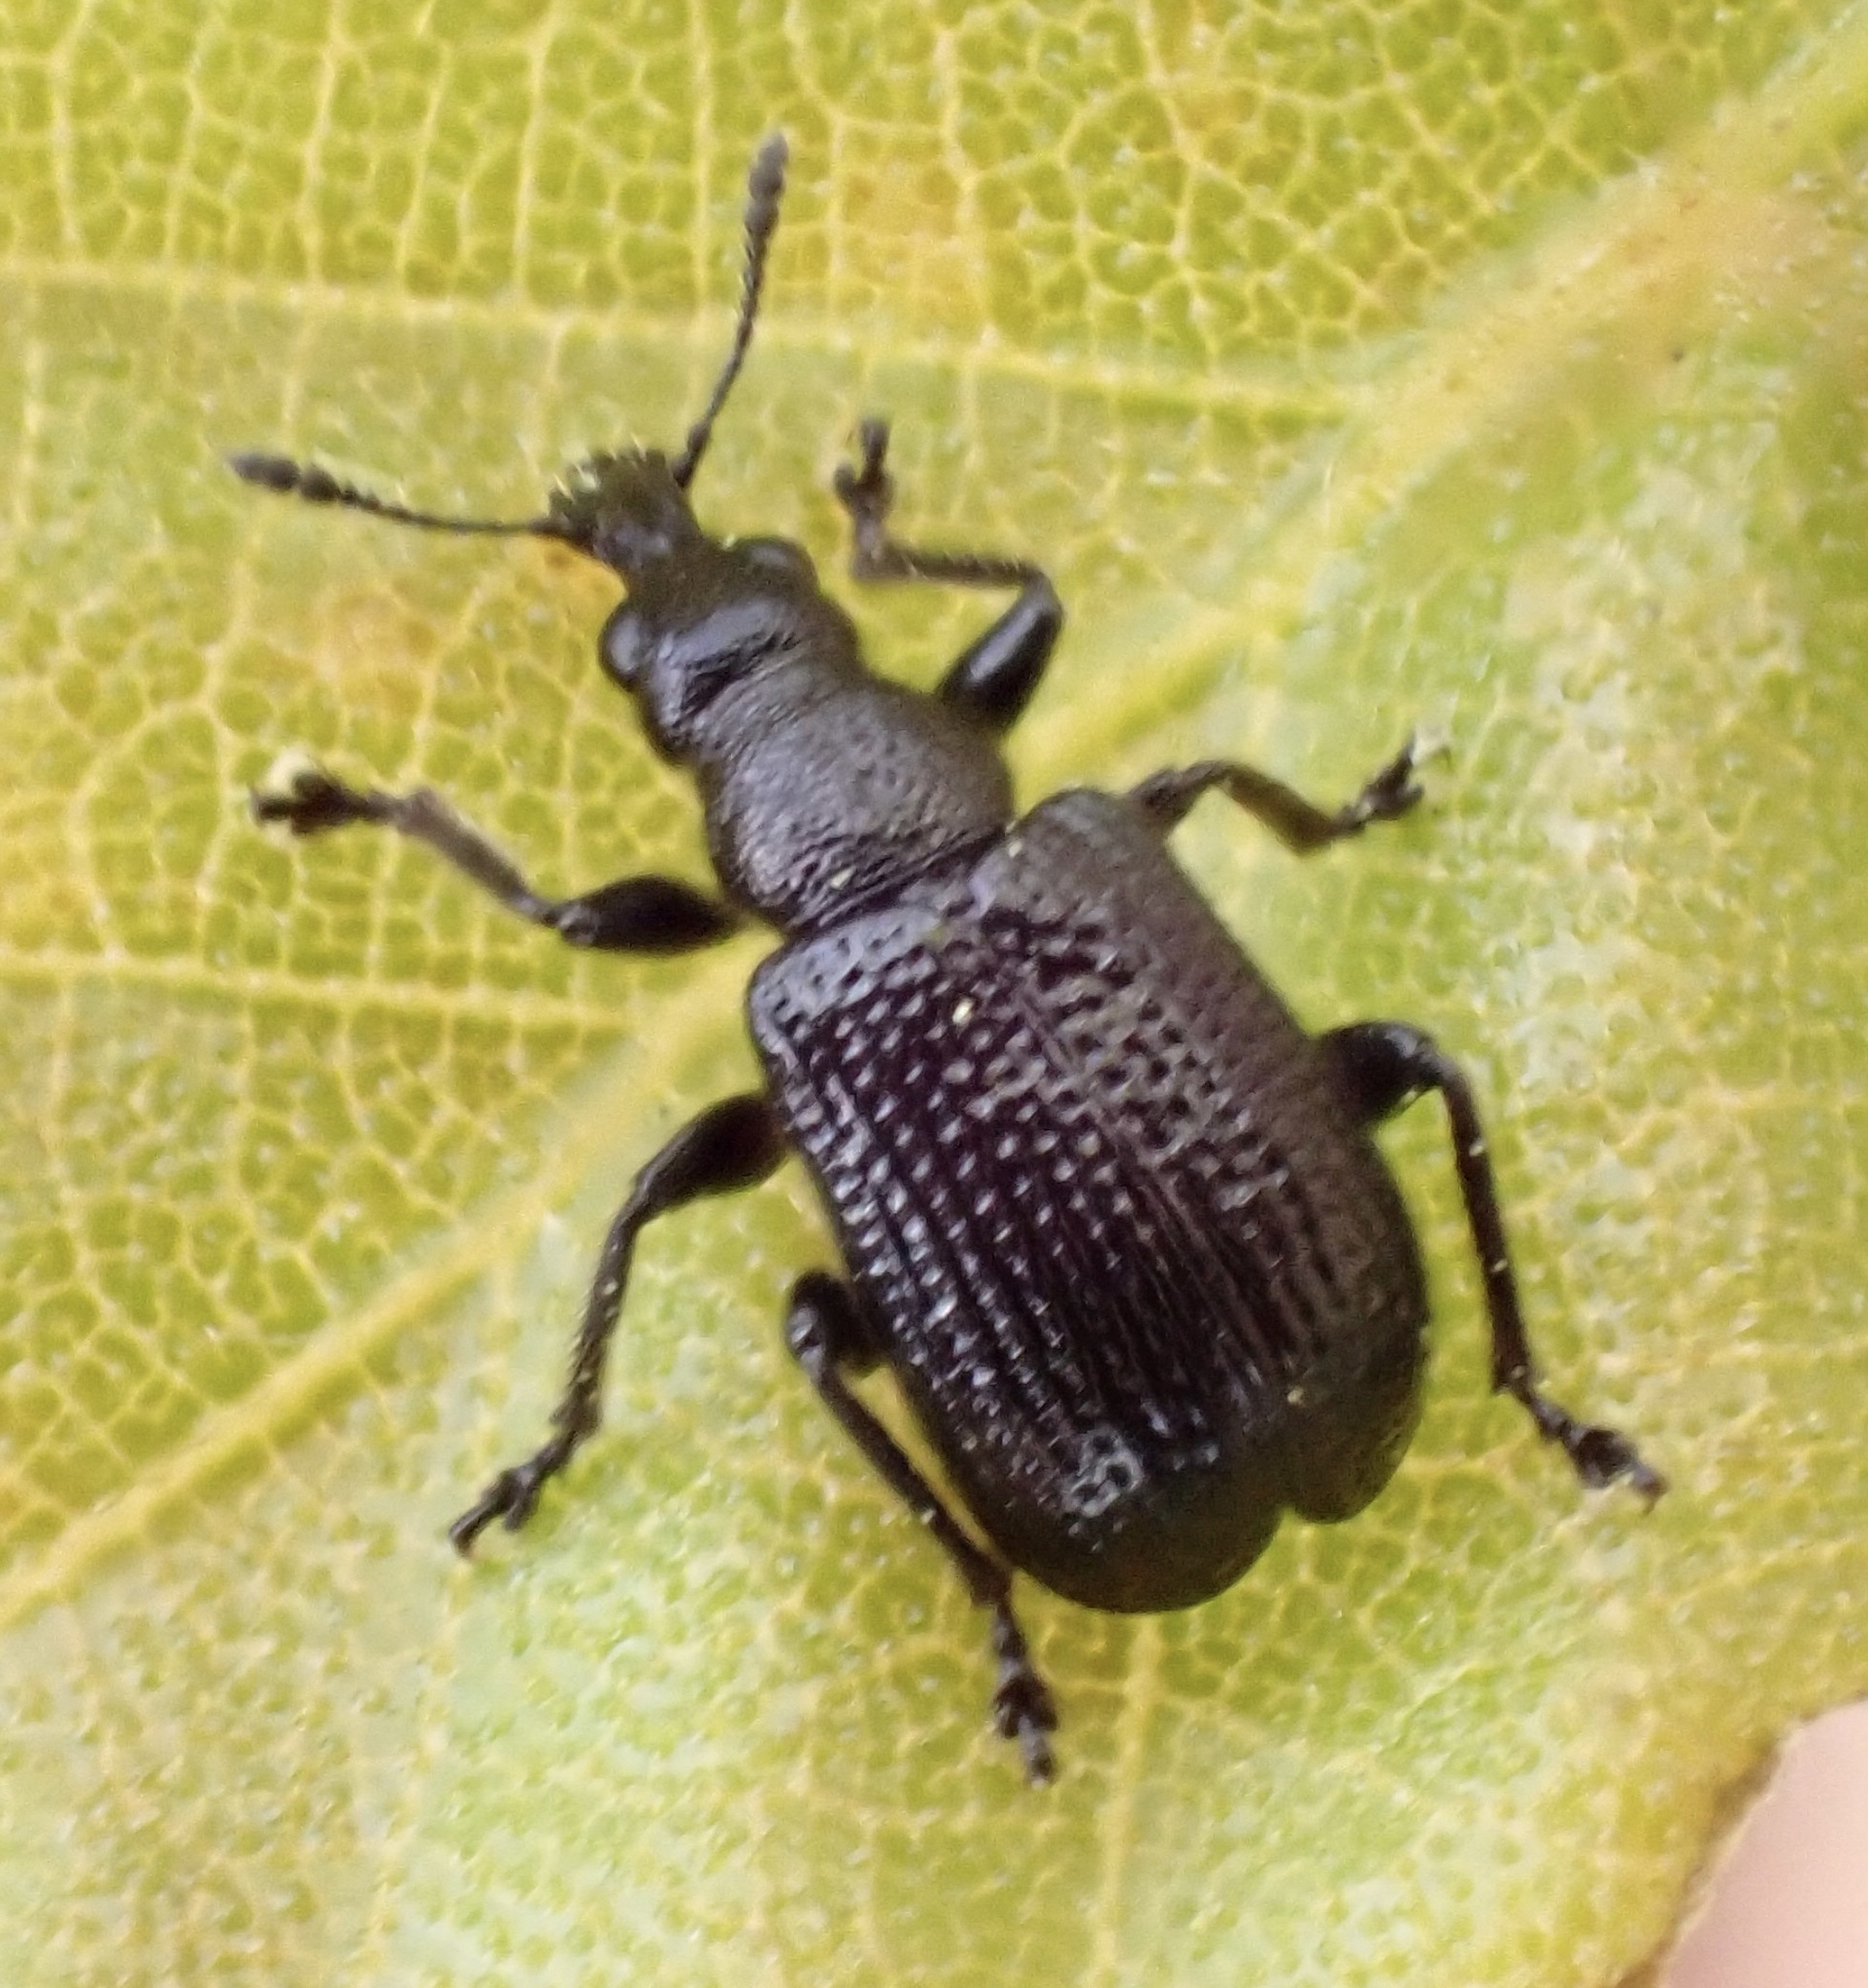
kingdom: Animalia
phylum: Arthropoda
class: Insecta
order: Coleoptera
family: Attelabidae
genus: Deporaus
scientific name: Deporaus betulae
